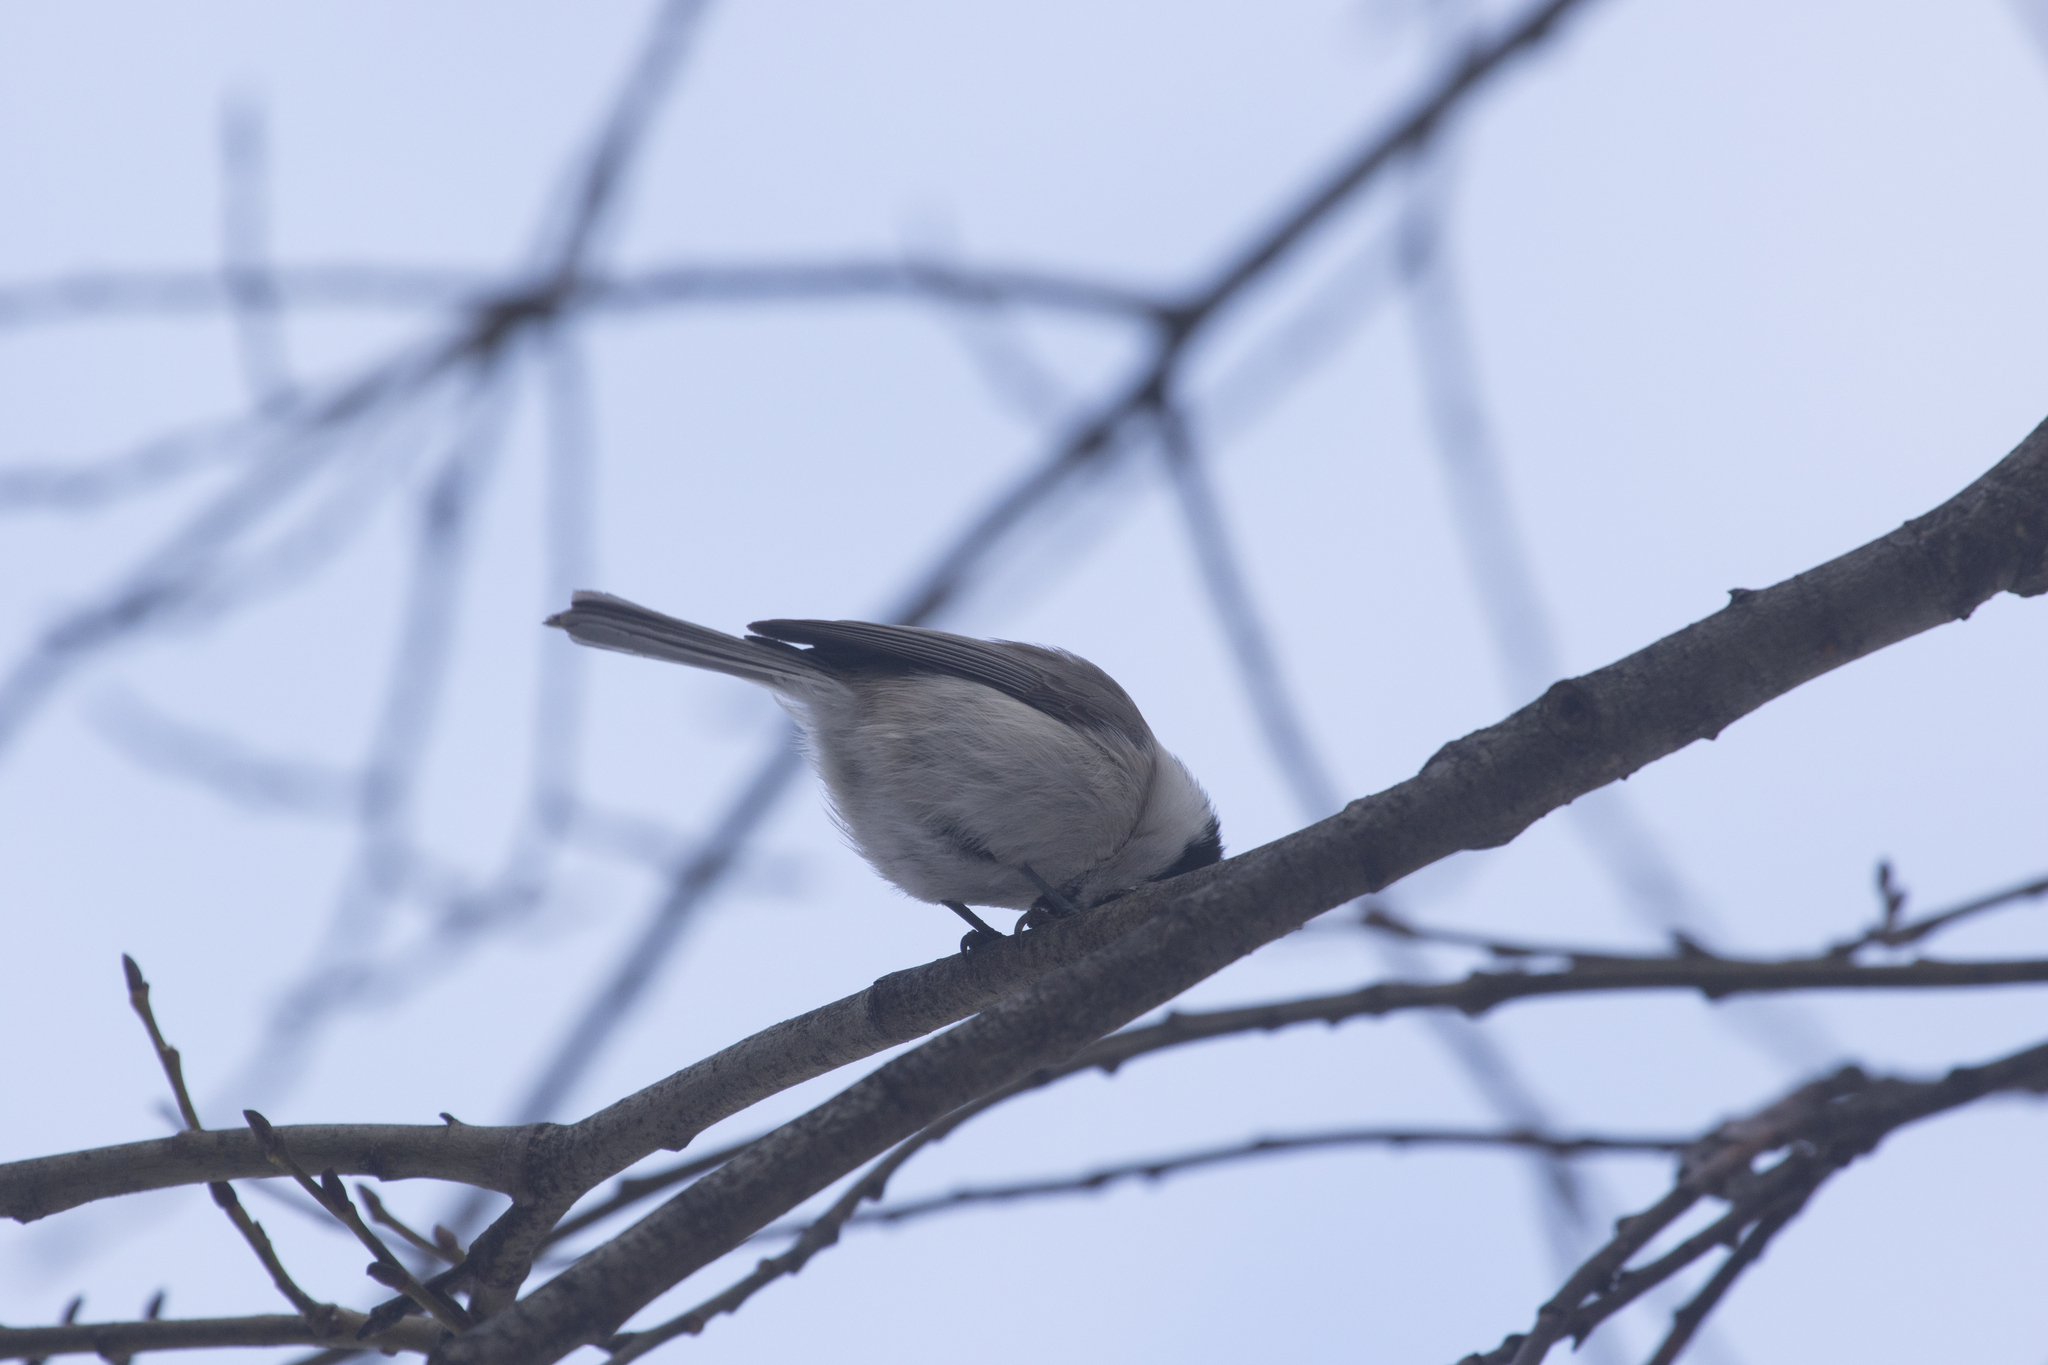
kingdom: Animalia
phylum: Chordata
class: Aves
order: Passeriformes
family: Paridae
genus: Poecile
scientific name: Poecile palustris
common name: Marsh tit
